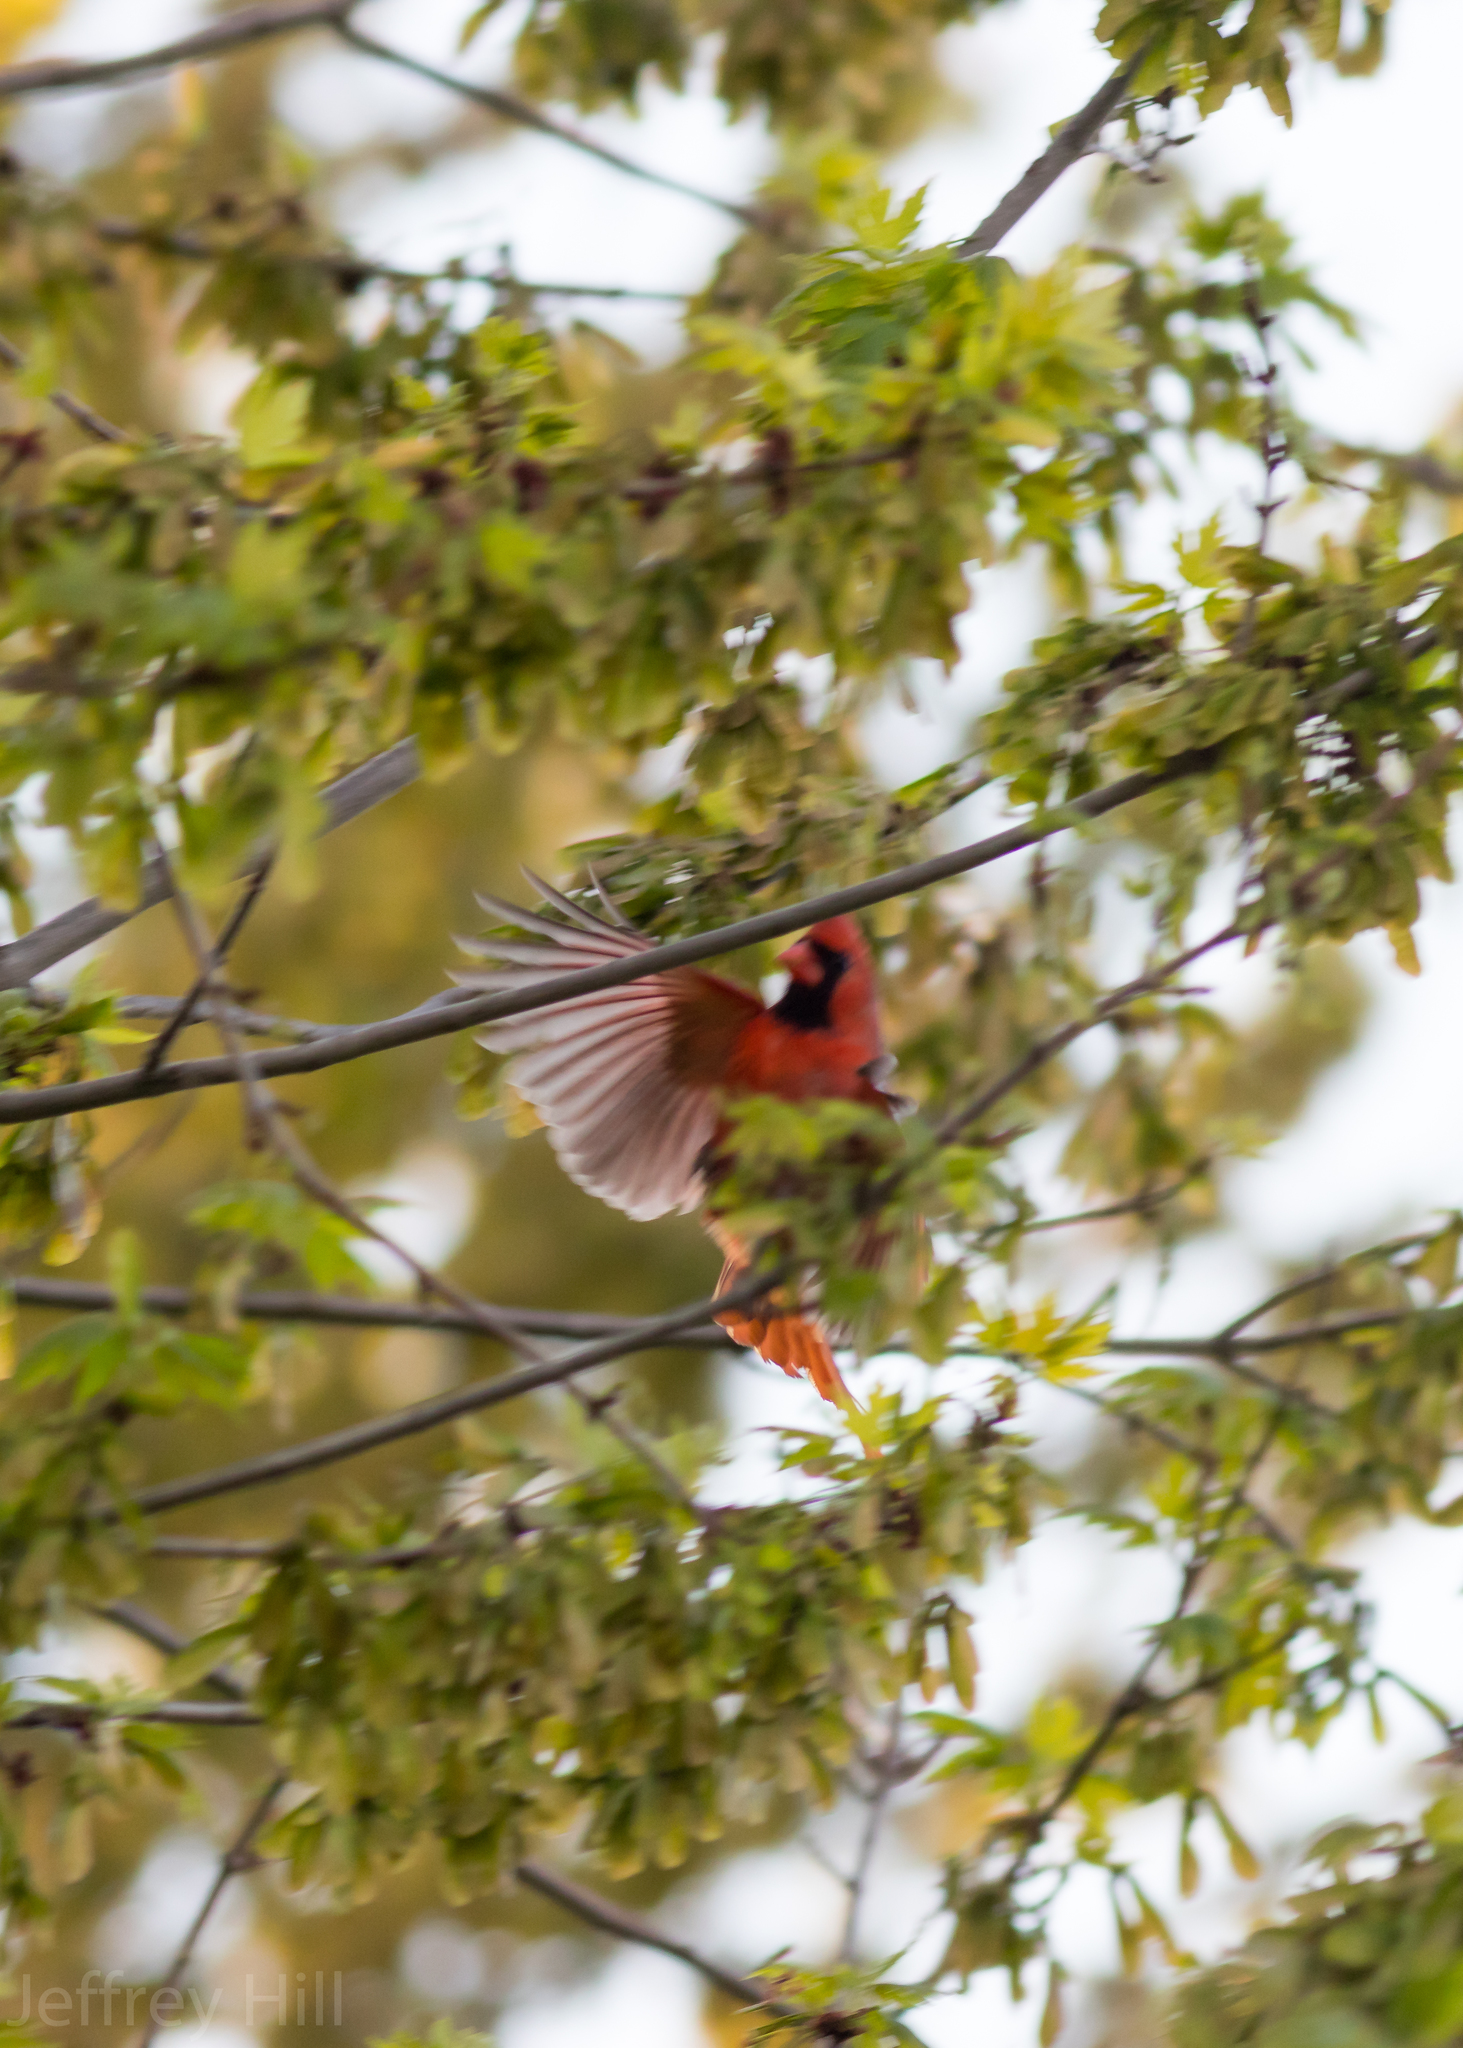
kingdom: Animalia
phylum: Chordata
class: Aves
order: Passeriformes
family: Cardinalidae
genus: Cardinalis
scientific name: Cardinalis cardinalis
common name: Northern cardinal
